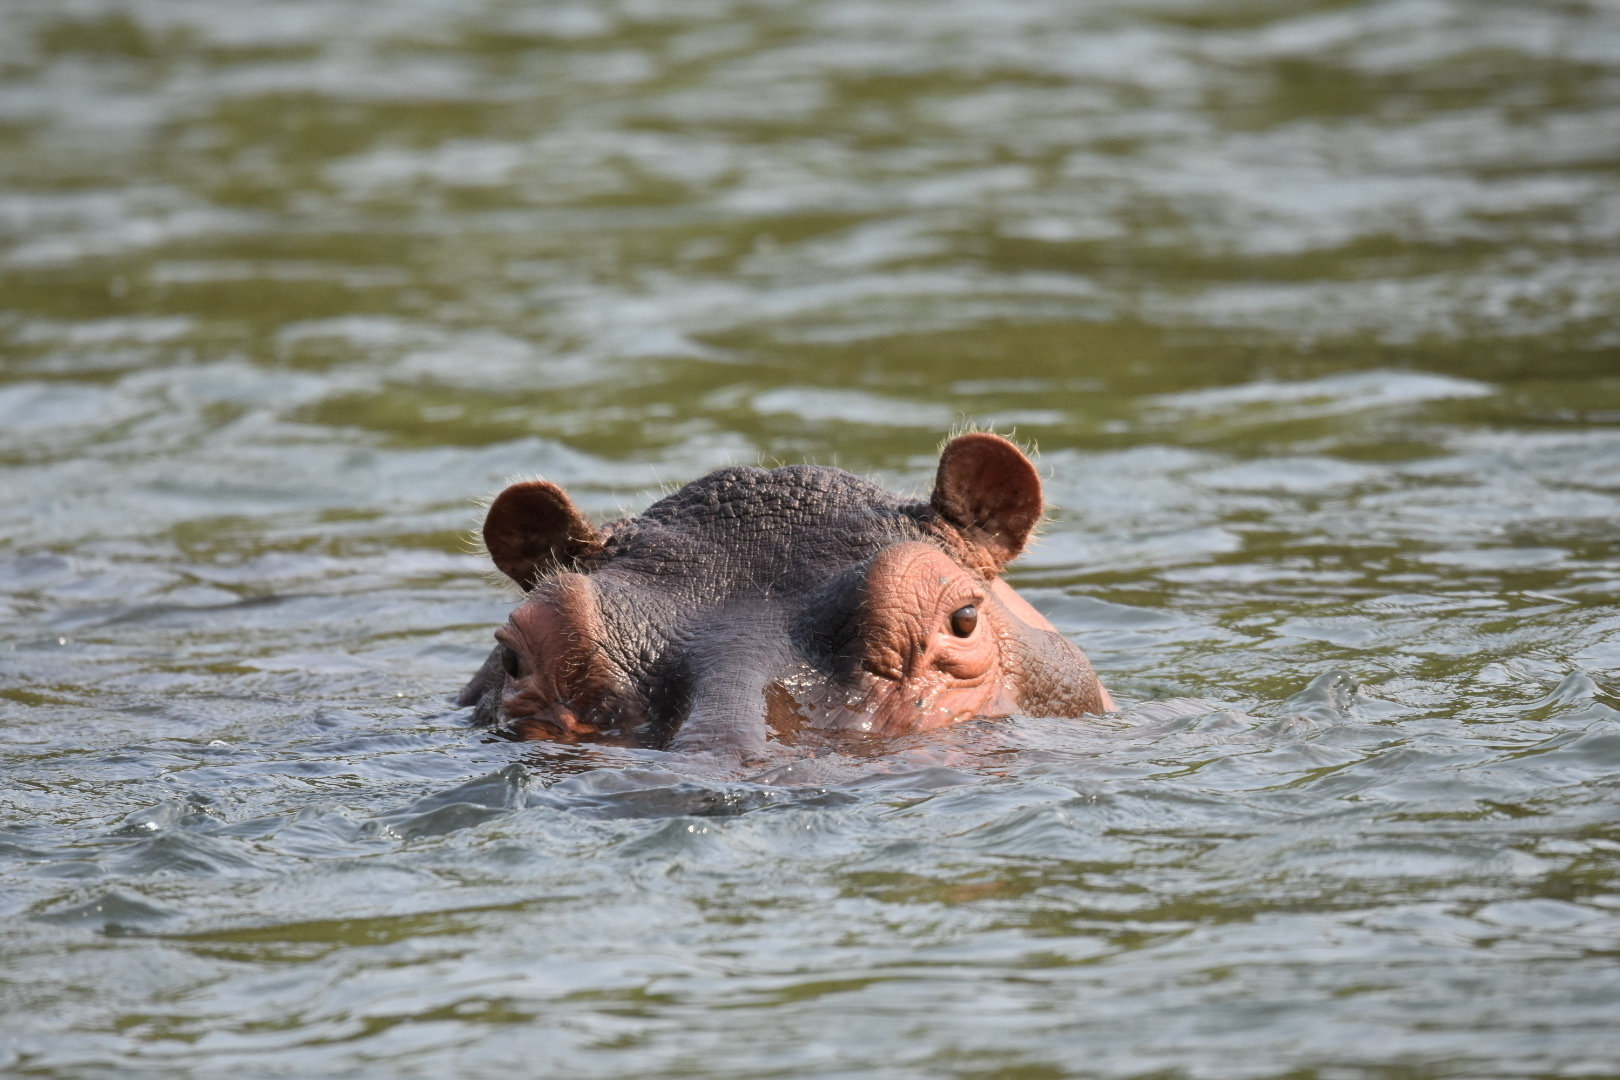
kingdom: Animalia
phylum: Chordata
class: Mammalia
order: Artiodactyla
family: Hippopotamidae
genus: Hippopotamus
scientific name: Hippopotamus amphibius
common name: Common hippopotamus
